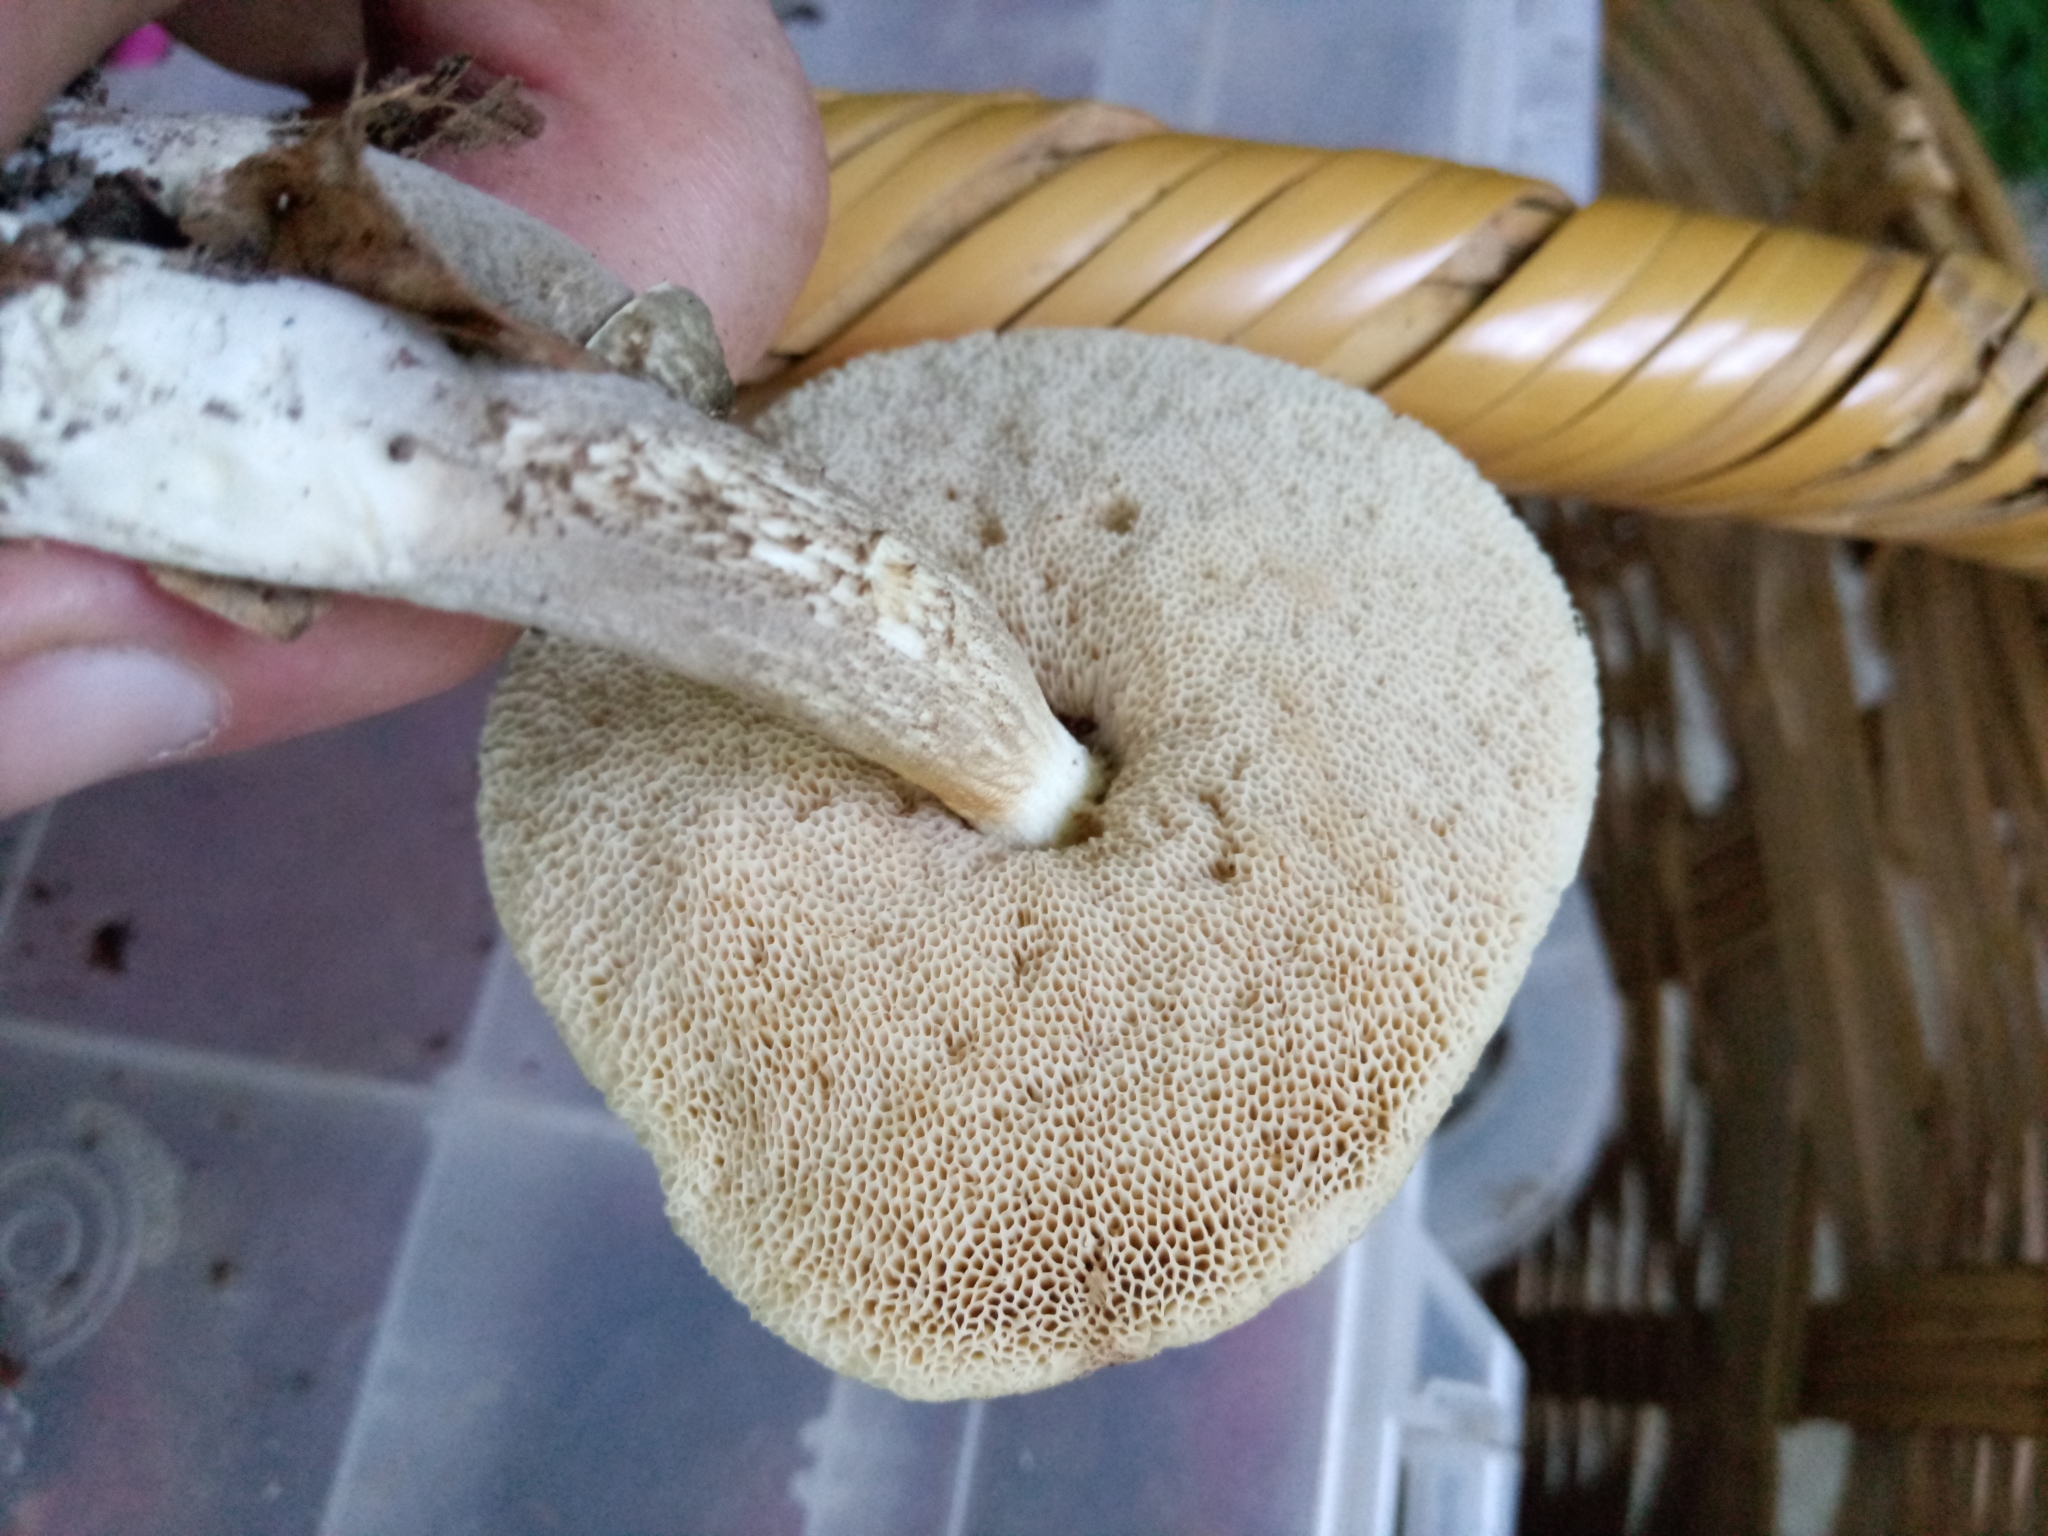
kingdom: Fungi
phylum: Basidiomycota
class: Agaricomycetes
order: Boletales
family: Boletaceae
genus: Leccinellum
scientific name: Leccinellum albellum
